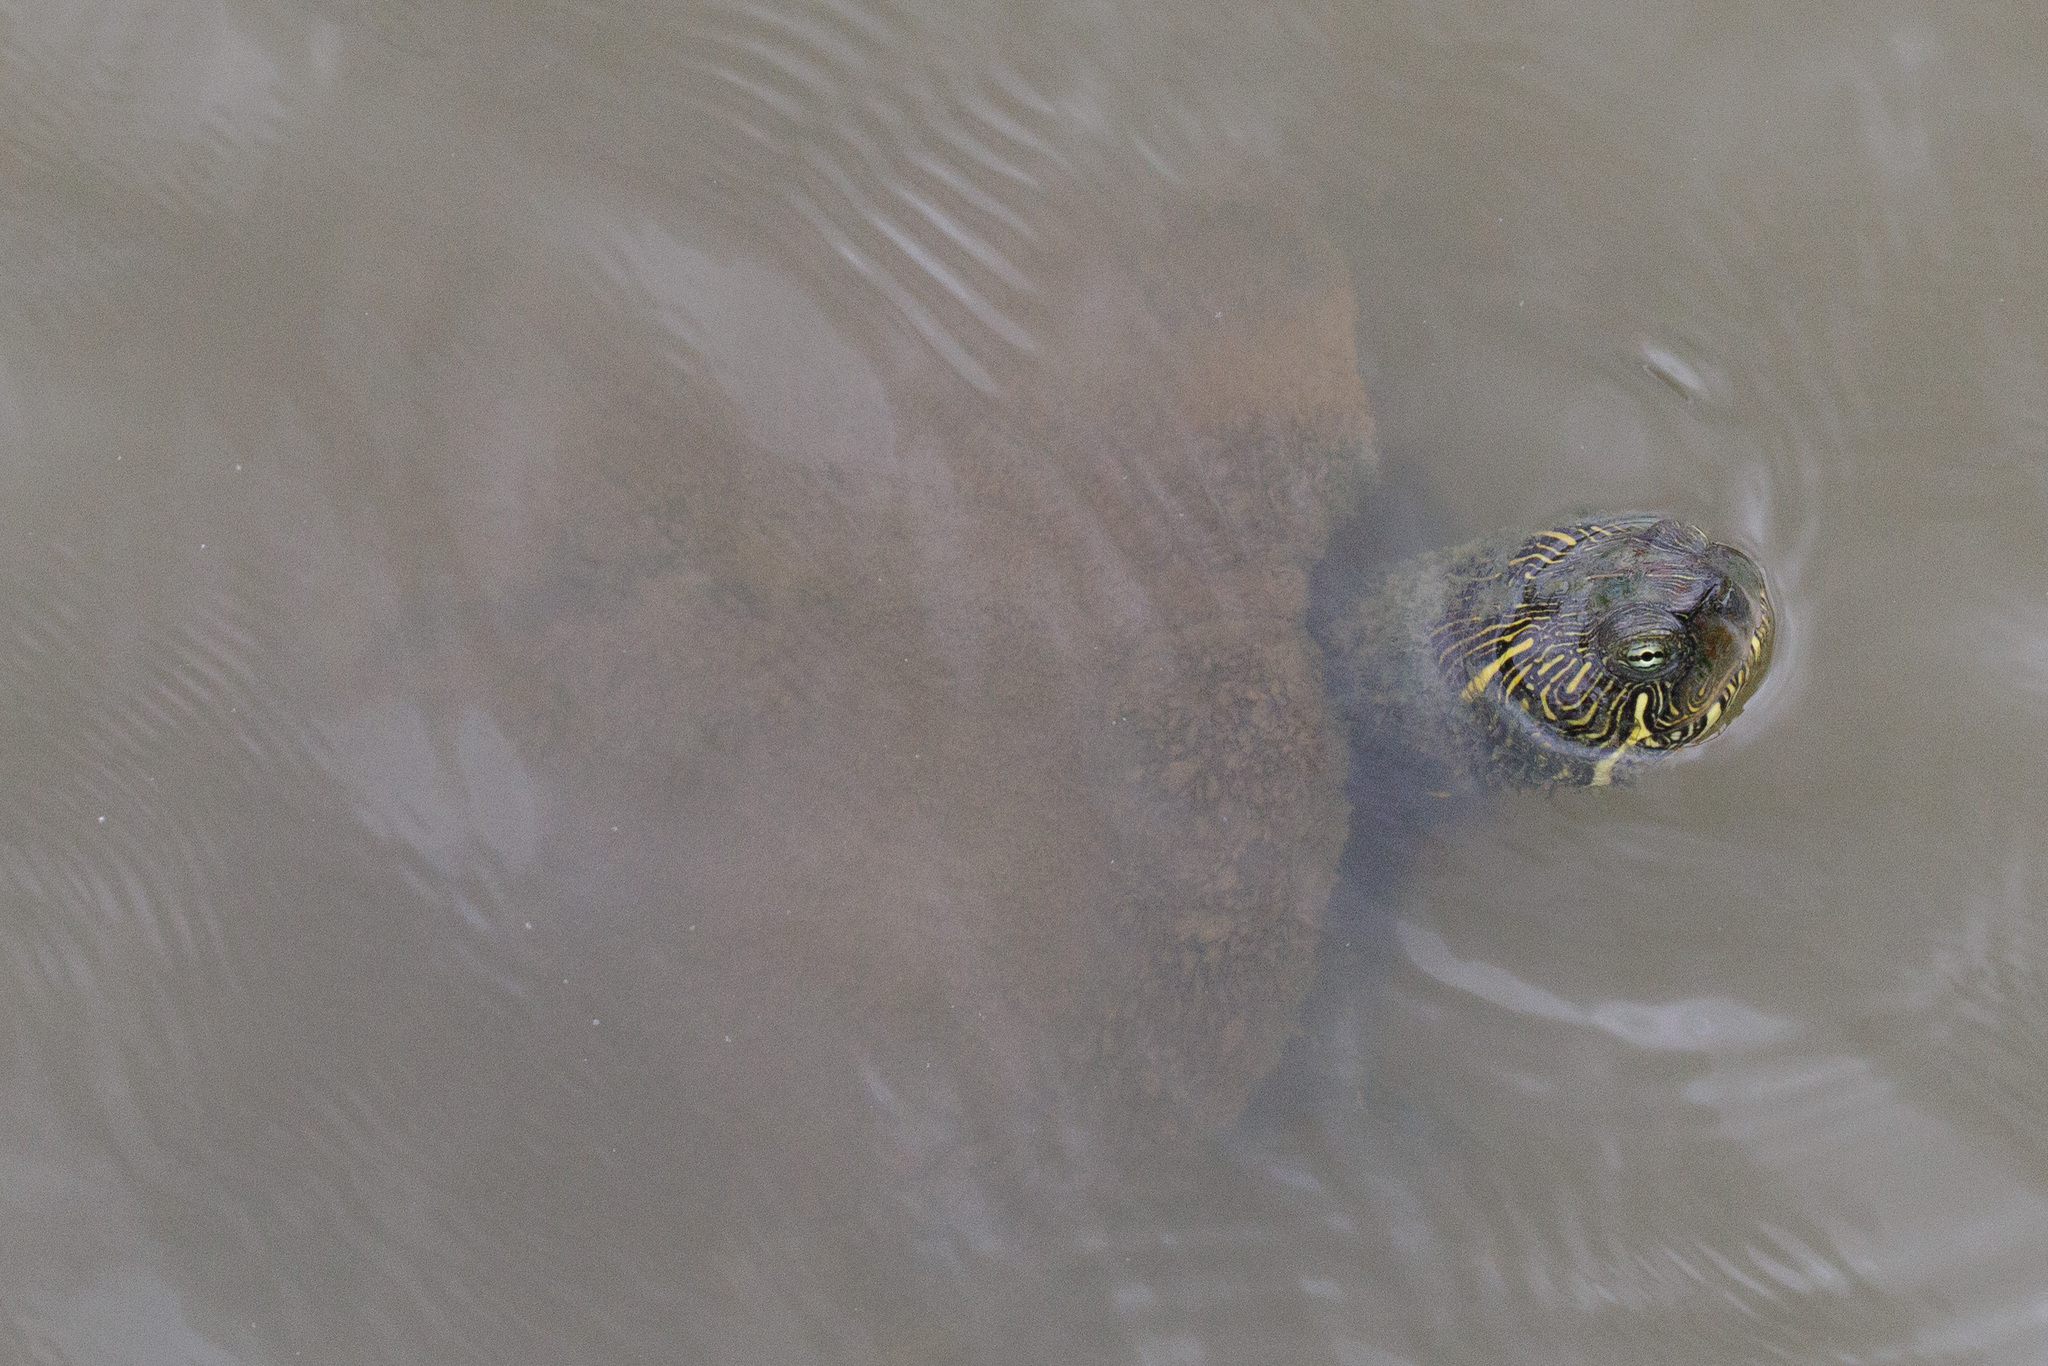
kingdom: Animalia
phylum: Chordata
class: Testudines
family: Emydidae
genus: Pseudemys
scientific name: Pseudemys texana
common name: Texas river cooter
